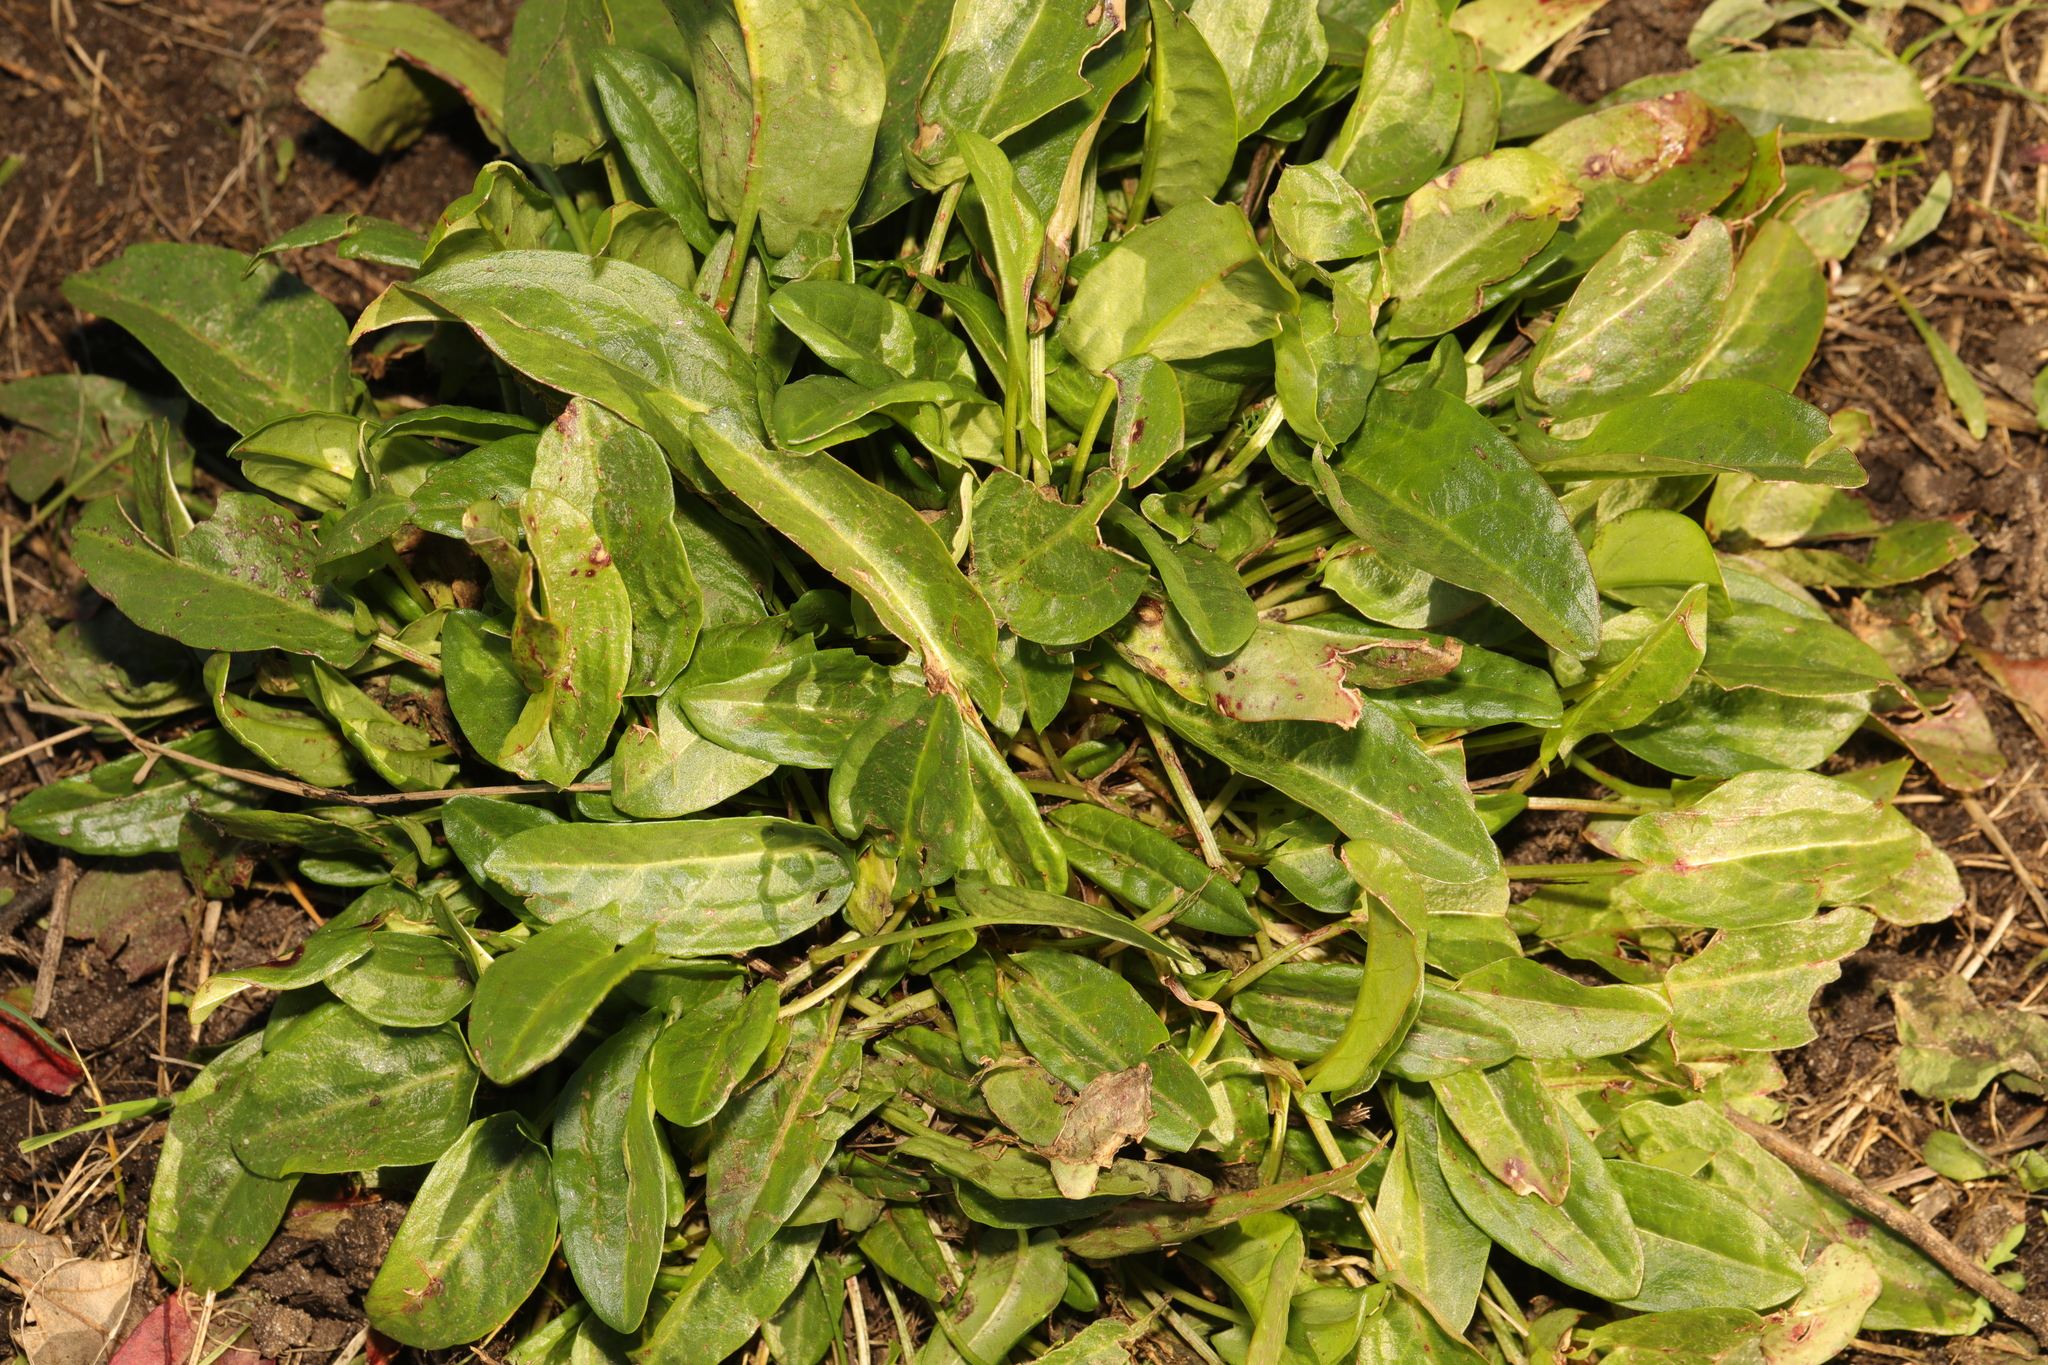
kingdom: Plantae
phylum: Tracheophyta
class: Magnoliopsida
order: Caryophyllales
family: Polygonaceae
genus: Rumex
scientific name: Rumex acetosa
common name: Garden sorrel
